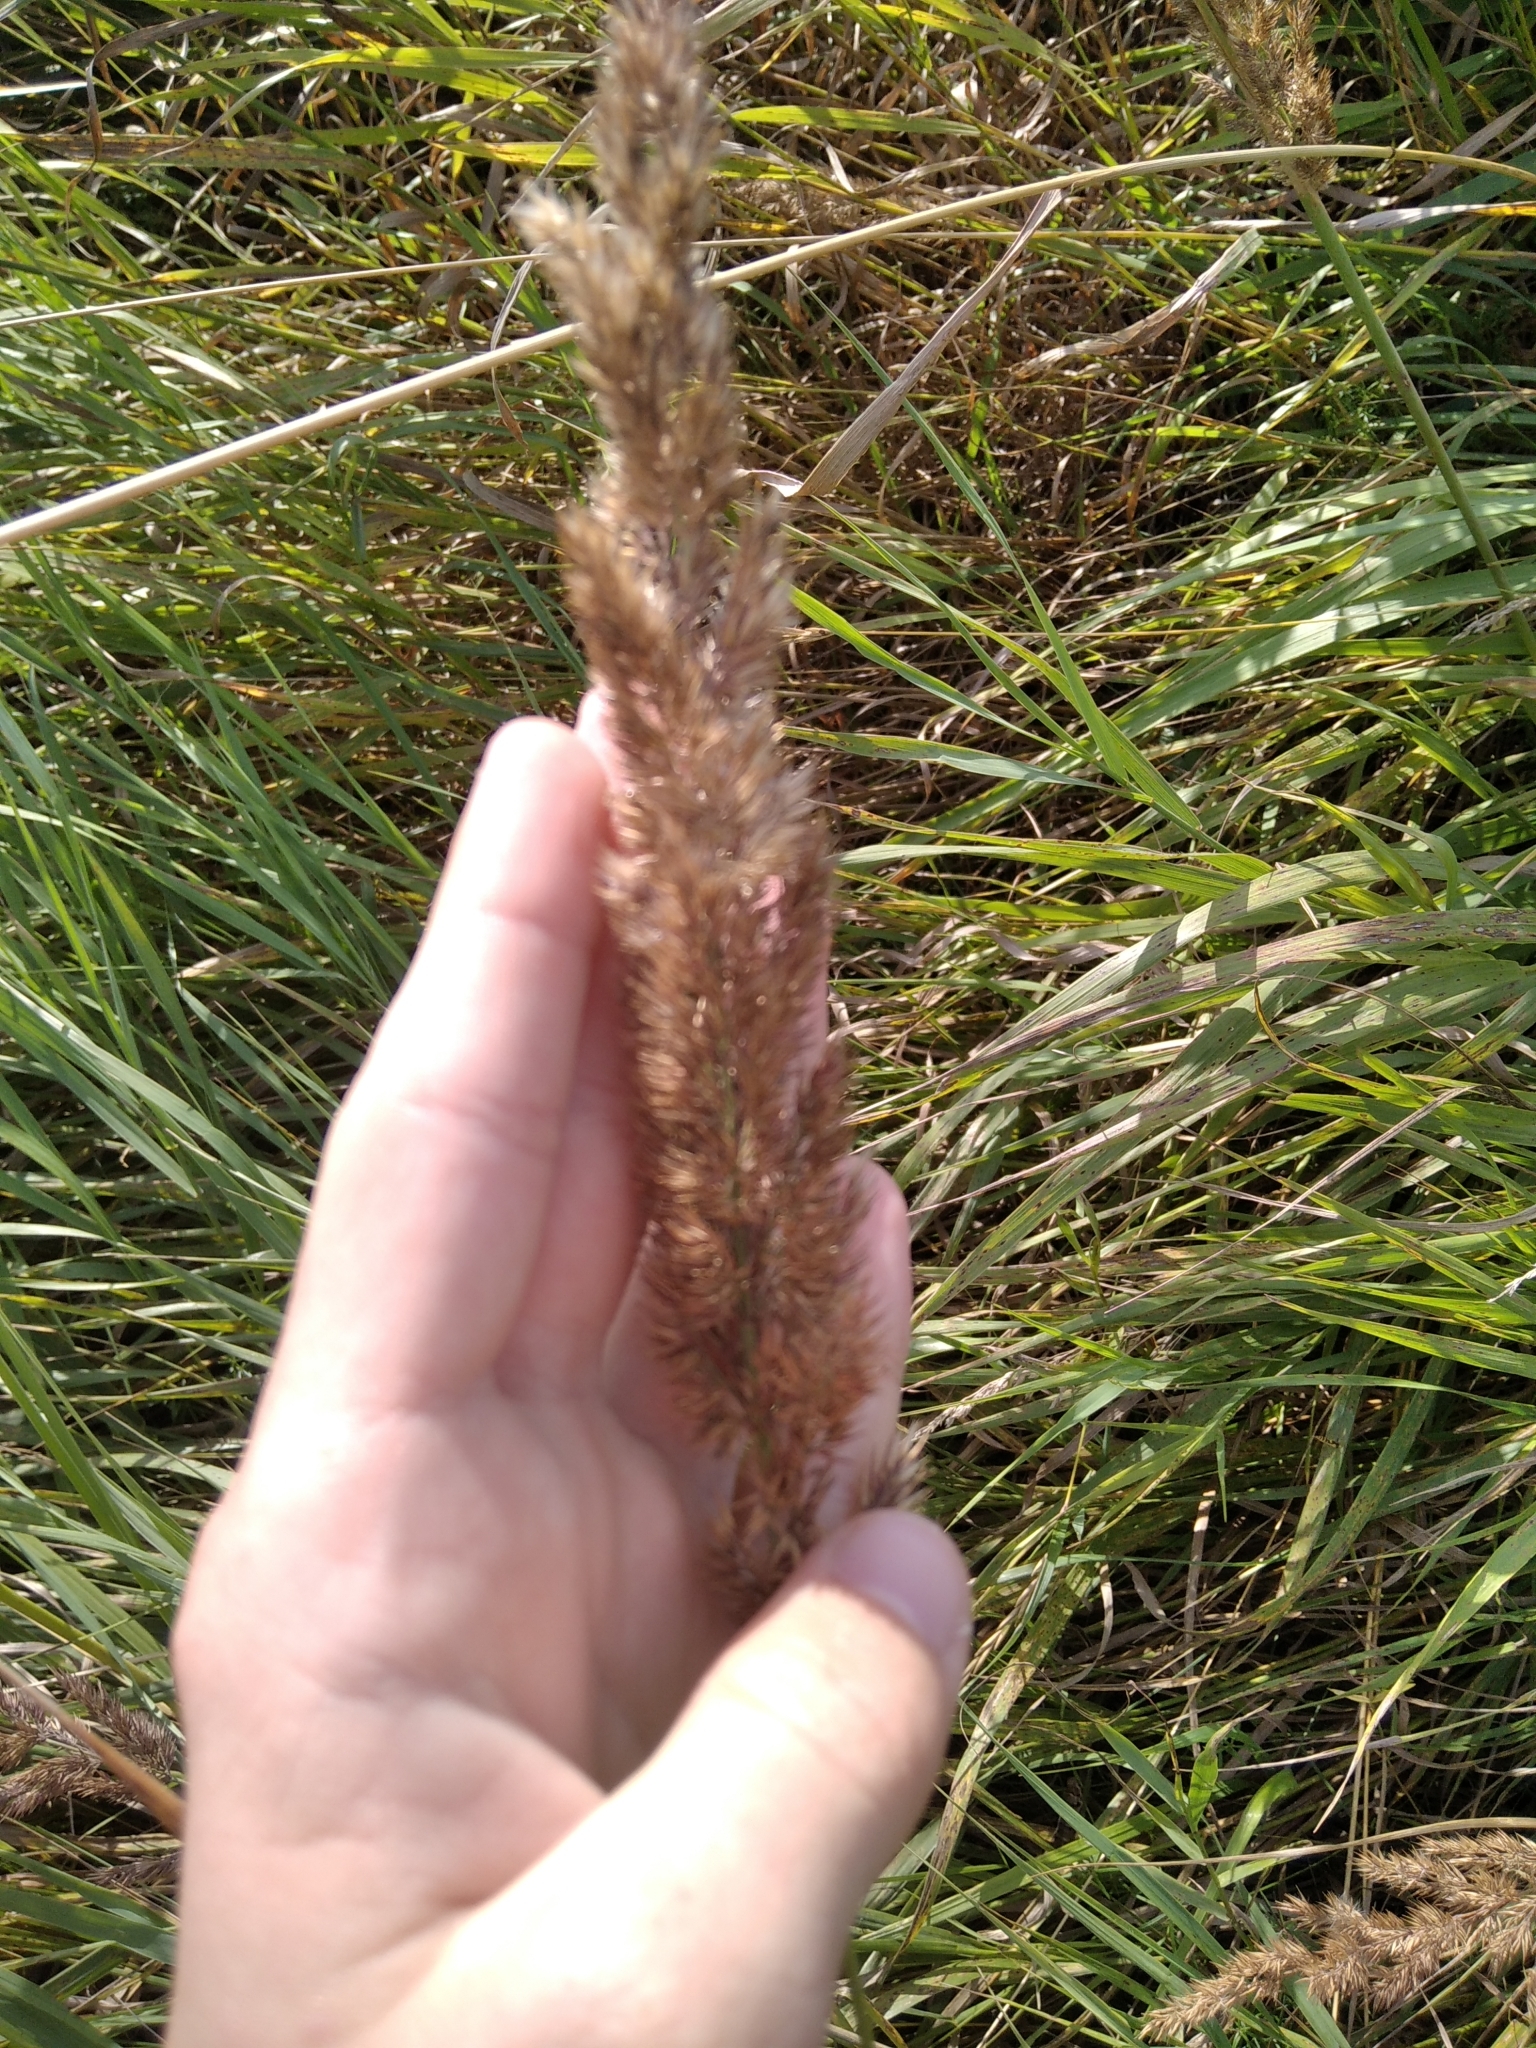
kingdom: Plantae
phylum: Tracheophyta
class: Liliopsida
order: Poales
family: Poaceae
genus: Calamagrostis
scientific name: Calamagrostis epigejos
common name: Wood small-reed
